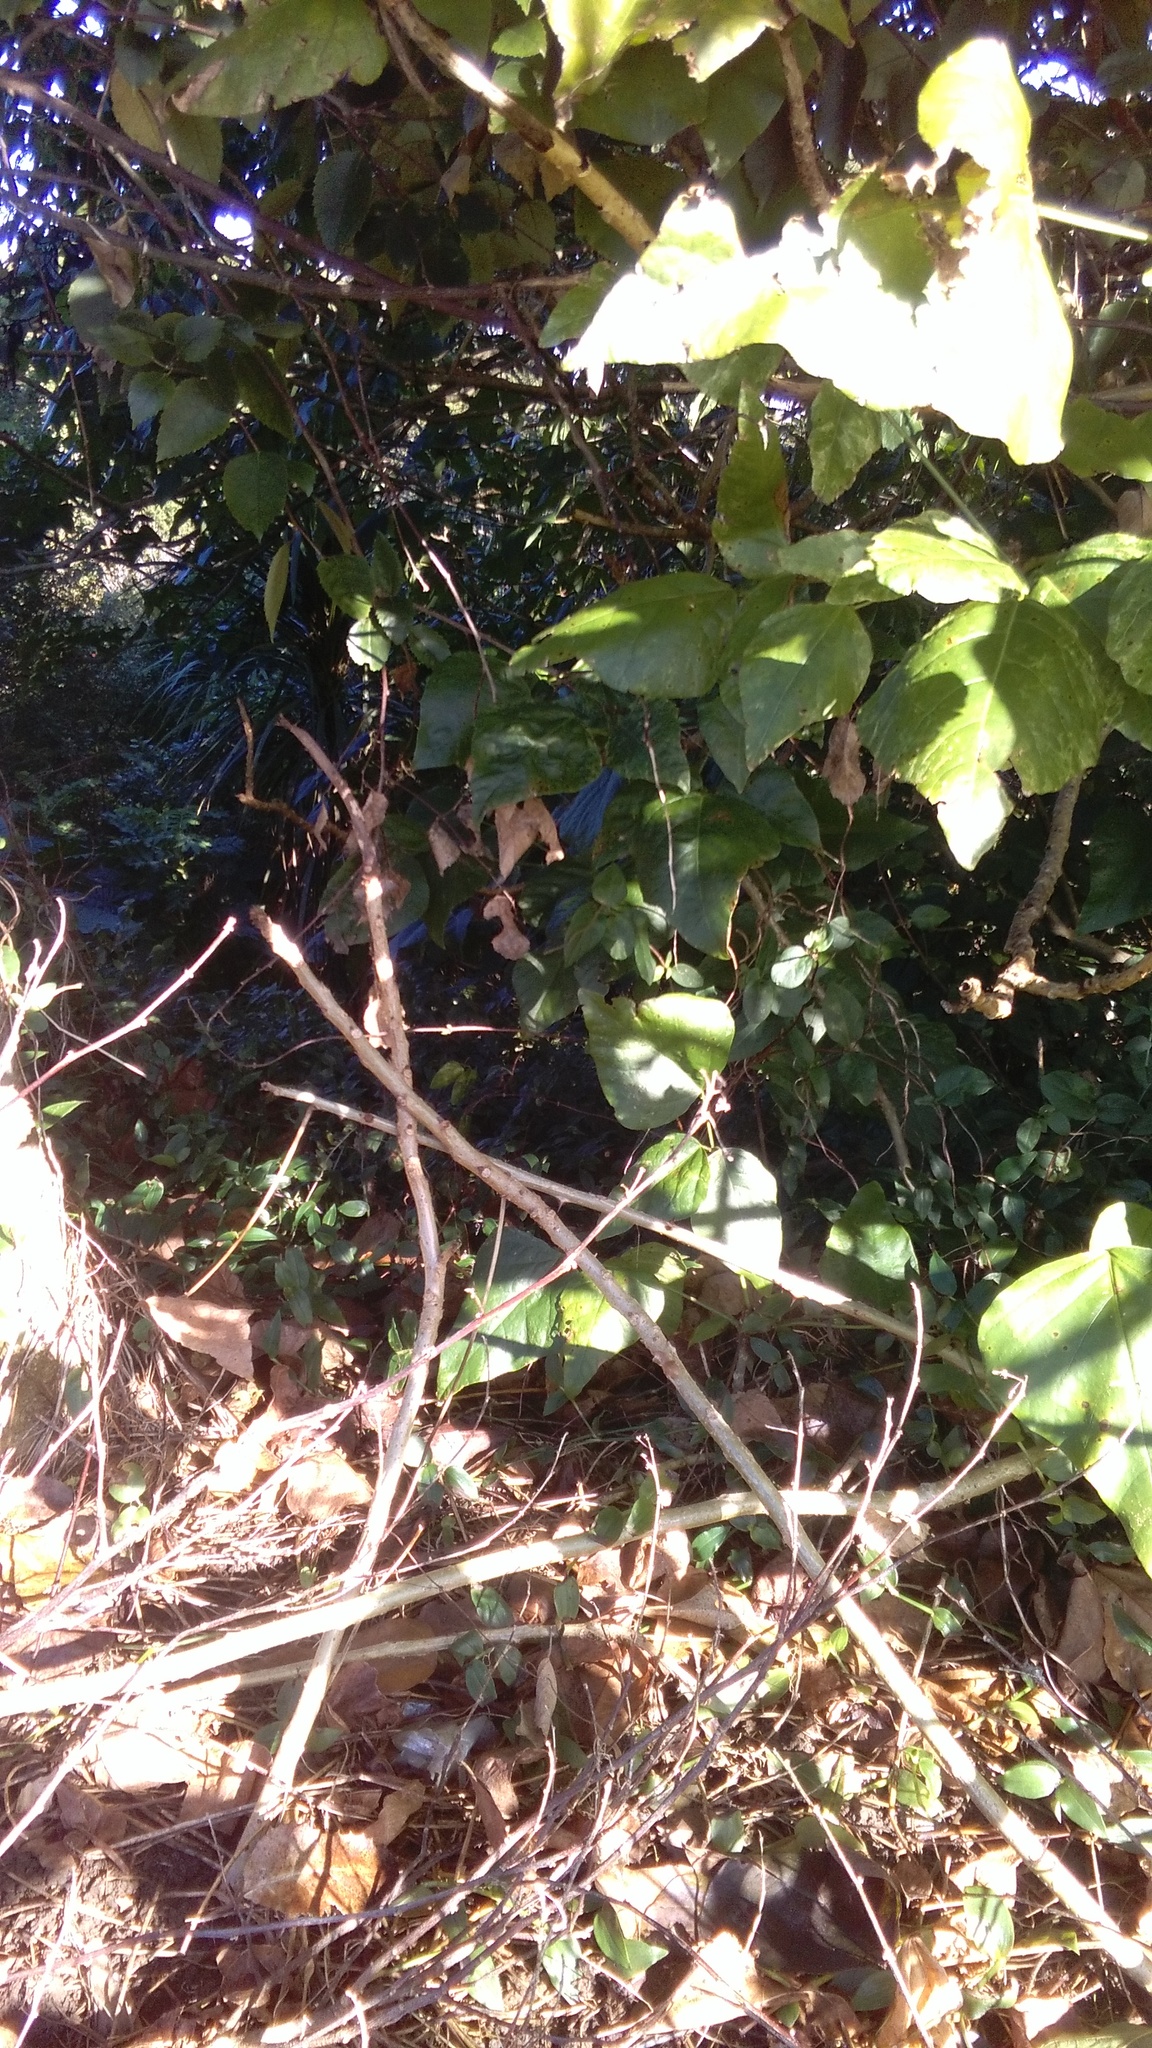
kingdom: Plantae
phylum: Tracheophyta
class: Liliopsida
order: Commelinales
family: Commelinaceae
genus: Tradescantia
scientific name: Tradescantia fluminensis
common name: Wandering-jew
